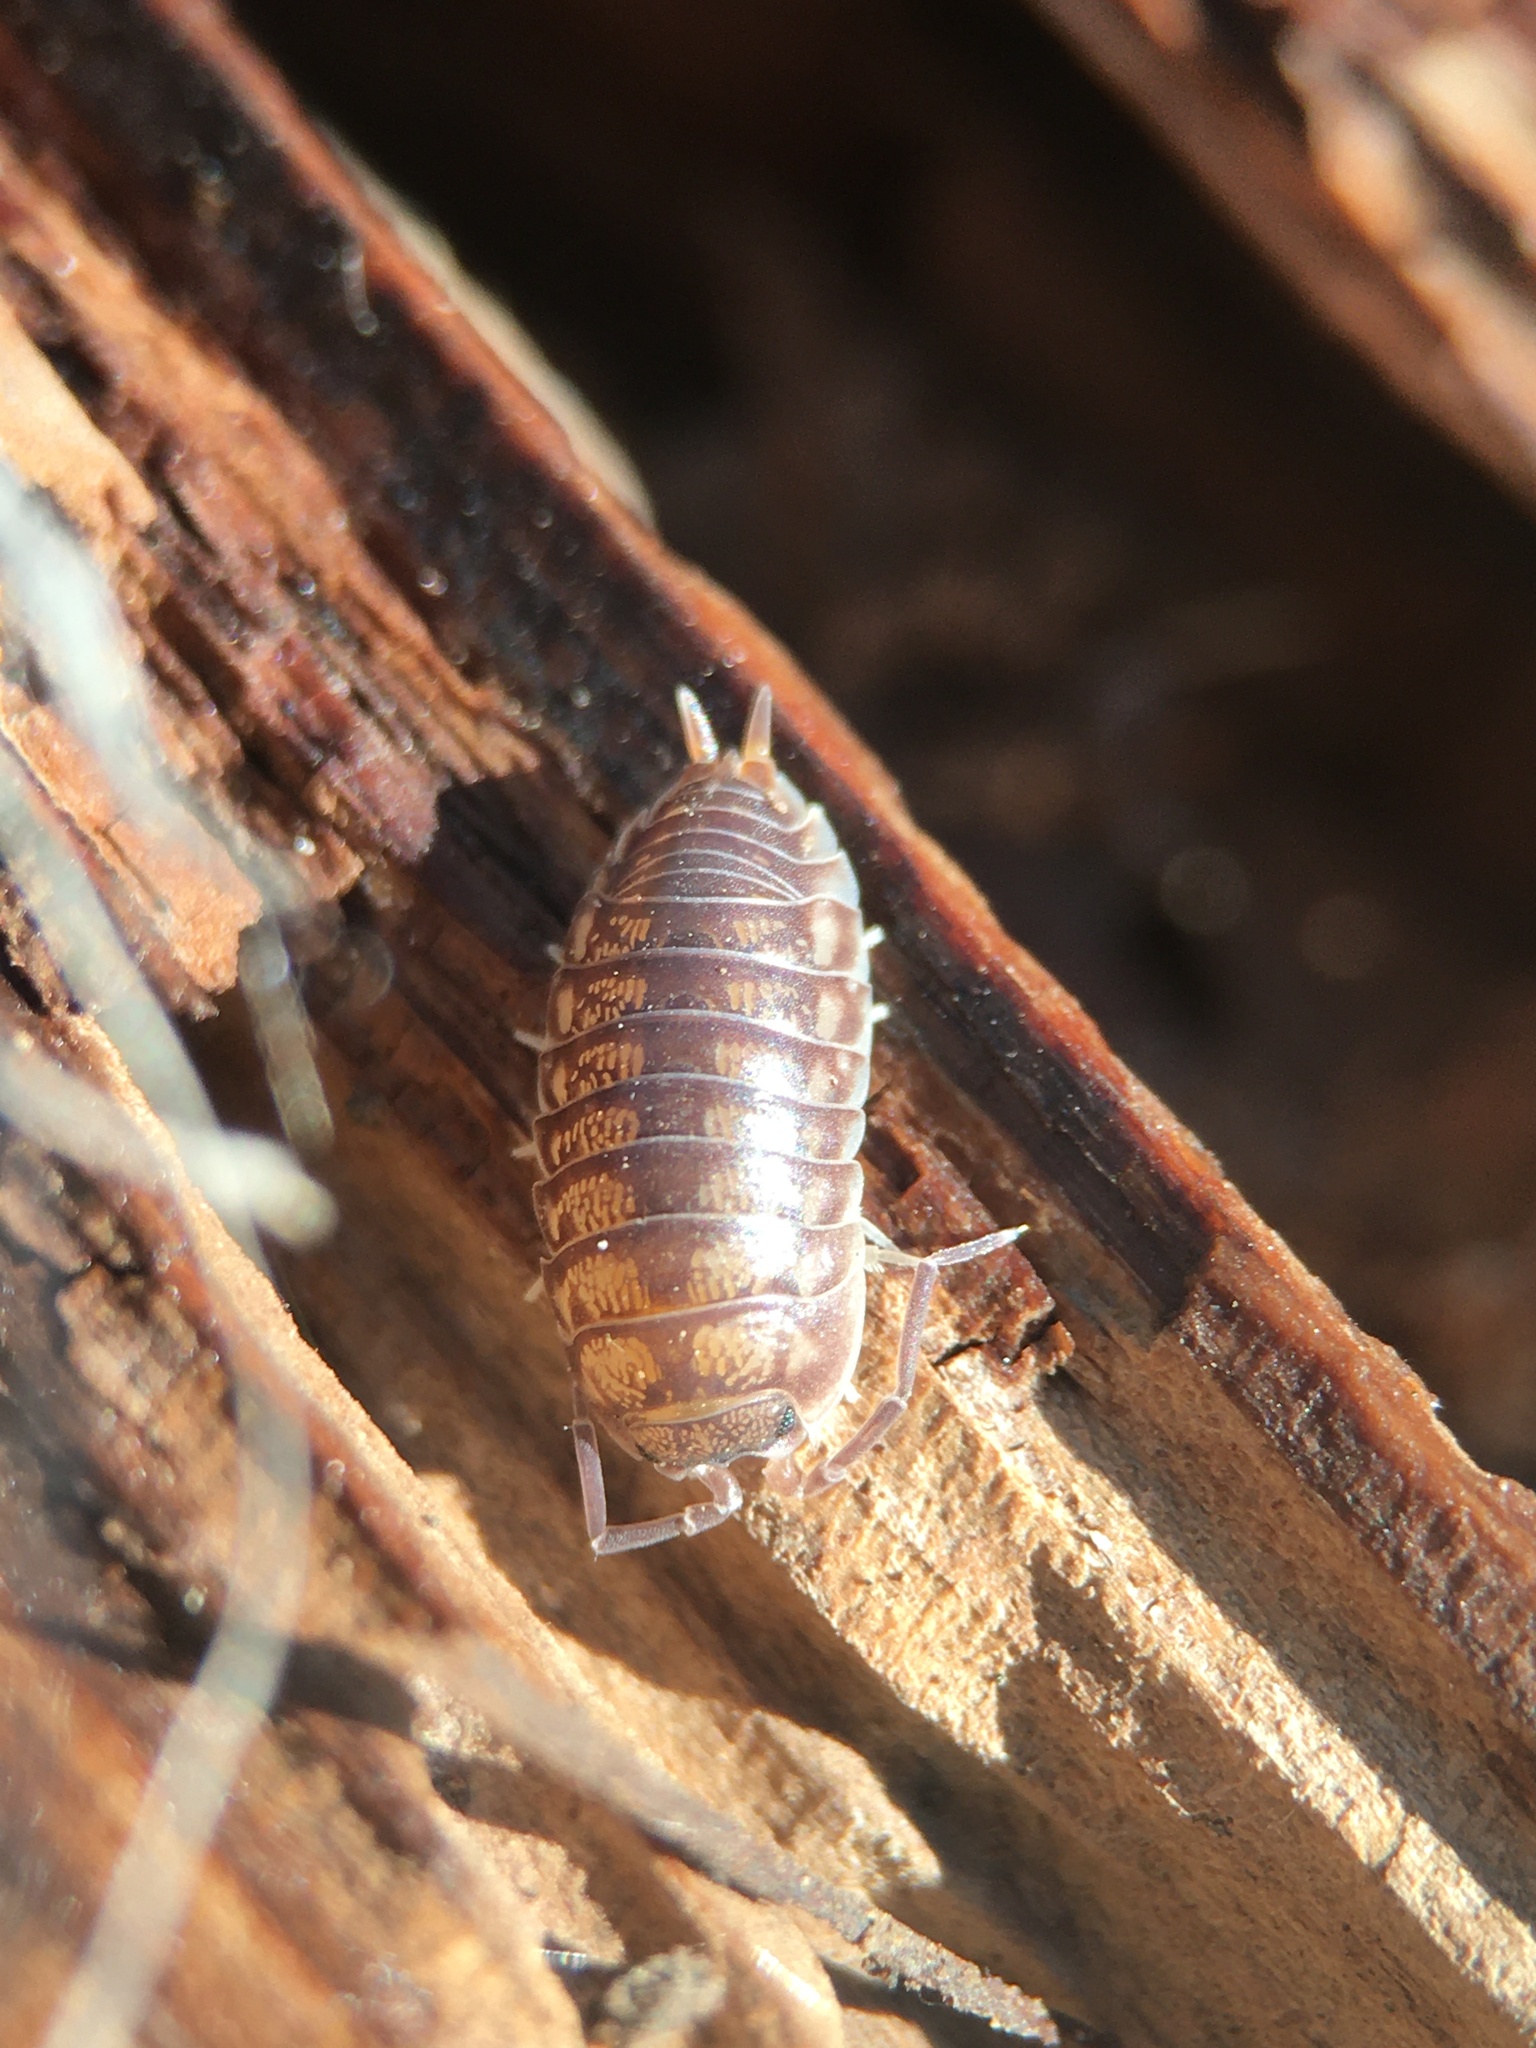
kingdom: Animalia
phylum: Arthropoda
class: Malacostraca
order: Isopoda
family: Cylisticidae
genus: Cylisticus
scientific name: Cylisticus convexus
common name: Curly woodlouse
